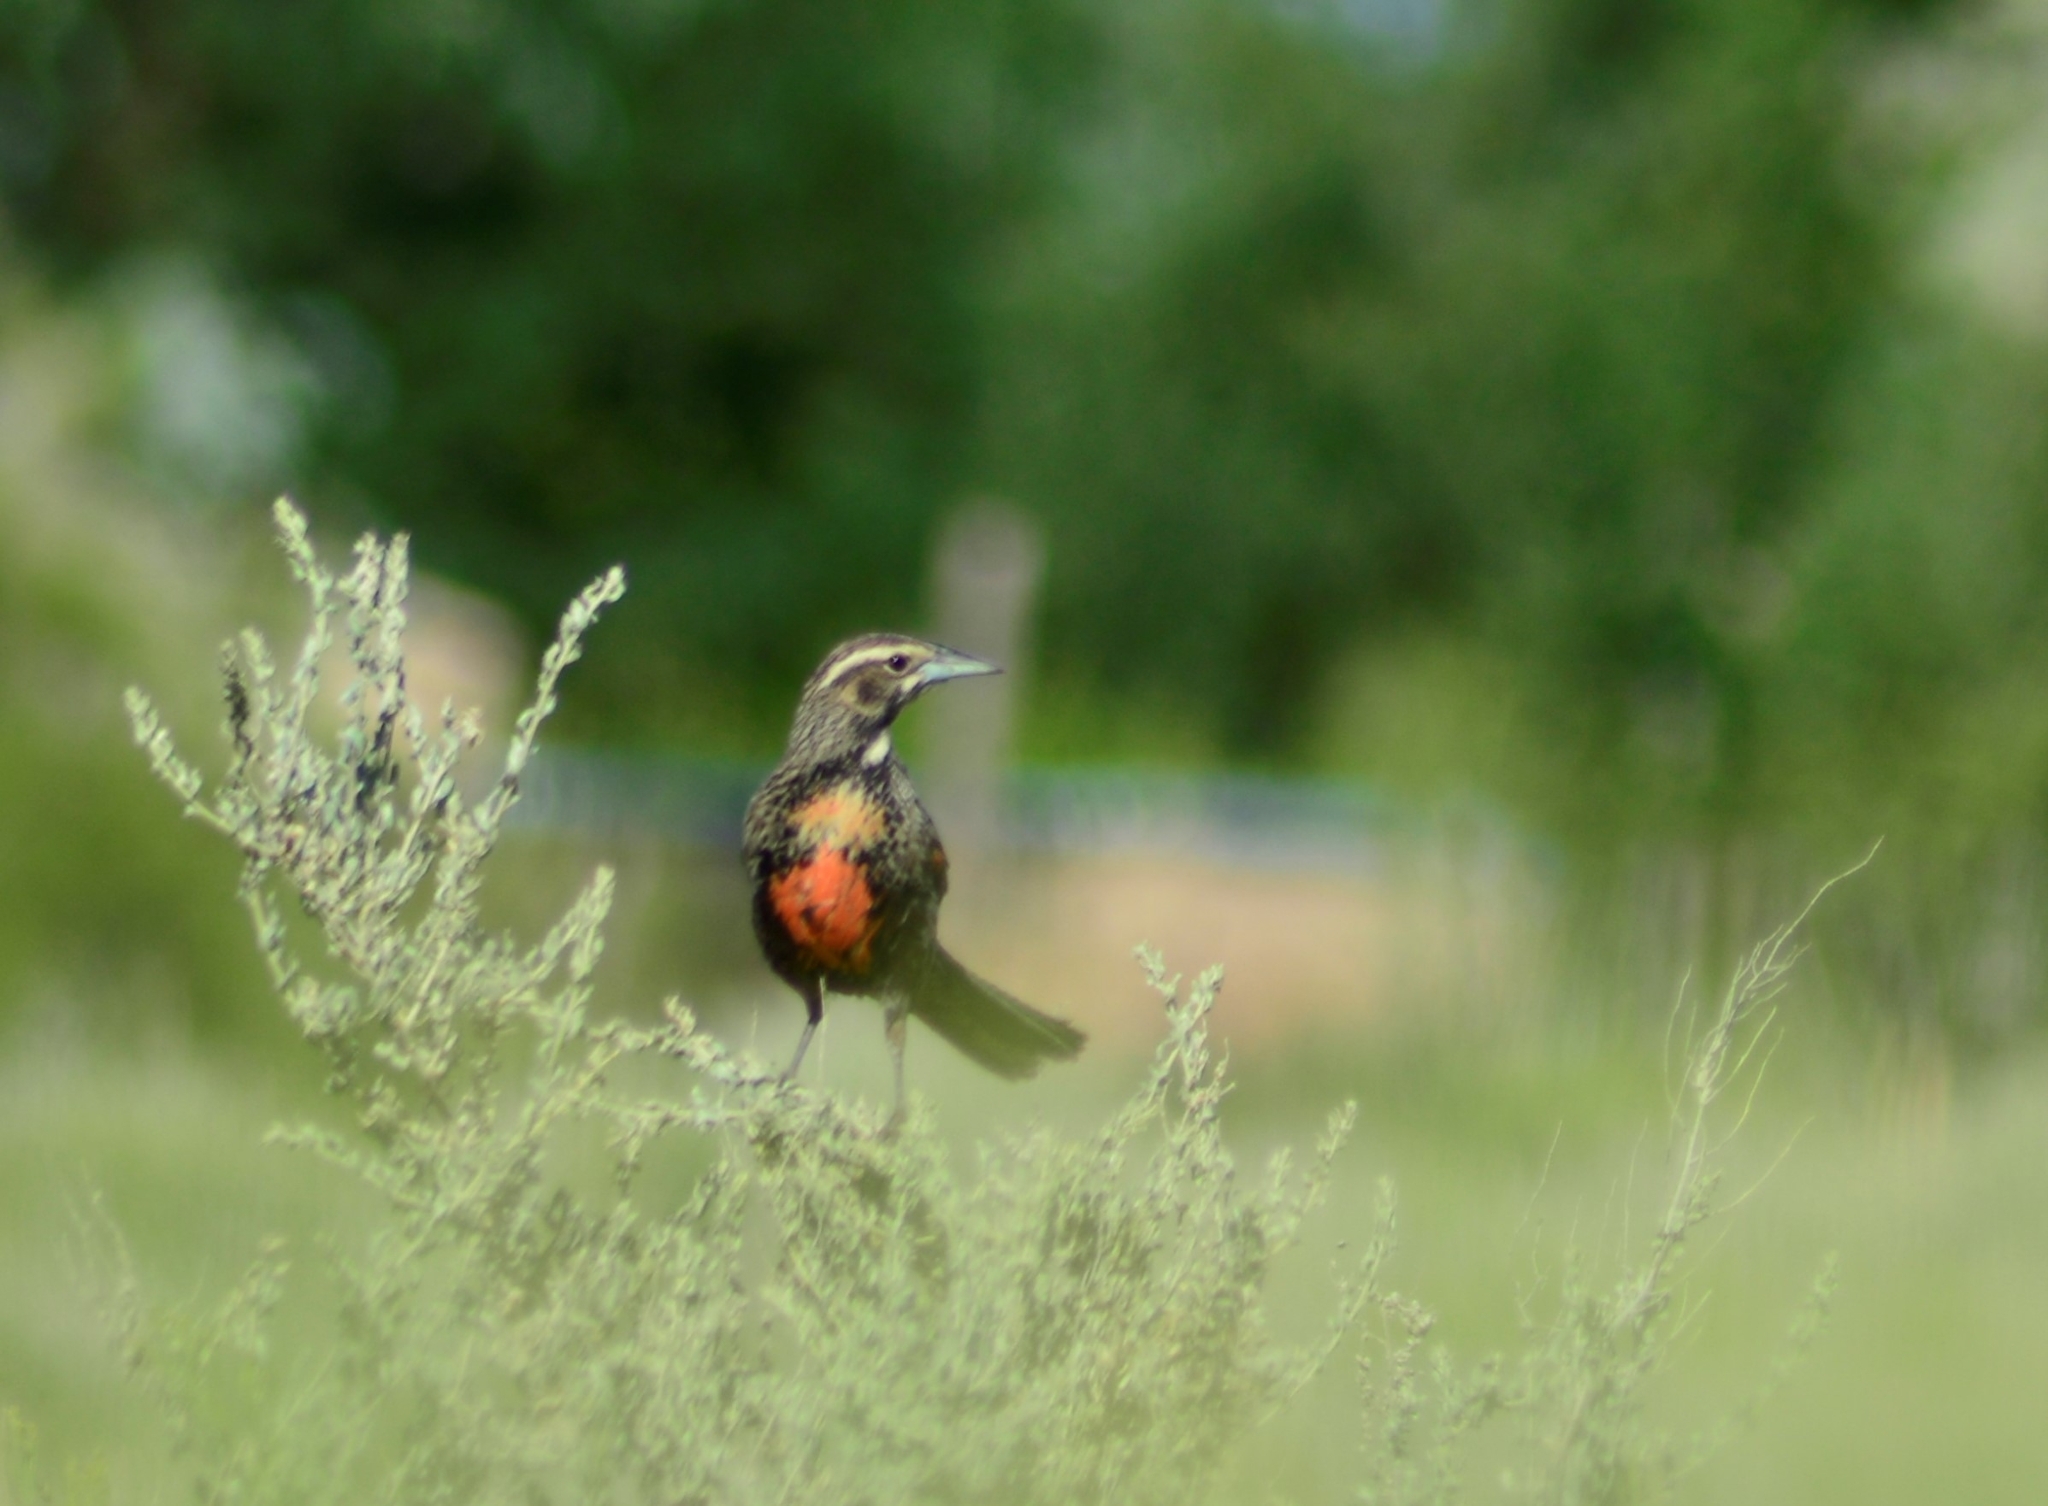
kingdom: Animalia
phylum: Chordata
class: Aves
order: Passeriformes
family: Icteridae
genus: Sturnella
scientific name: Sturnella loyca
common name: Long-tailed meadowlark
